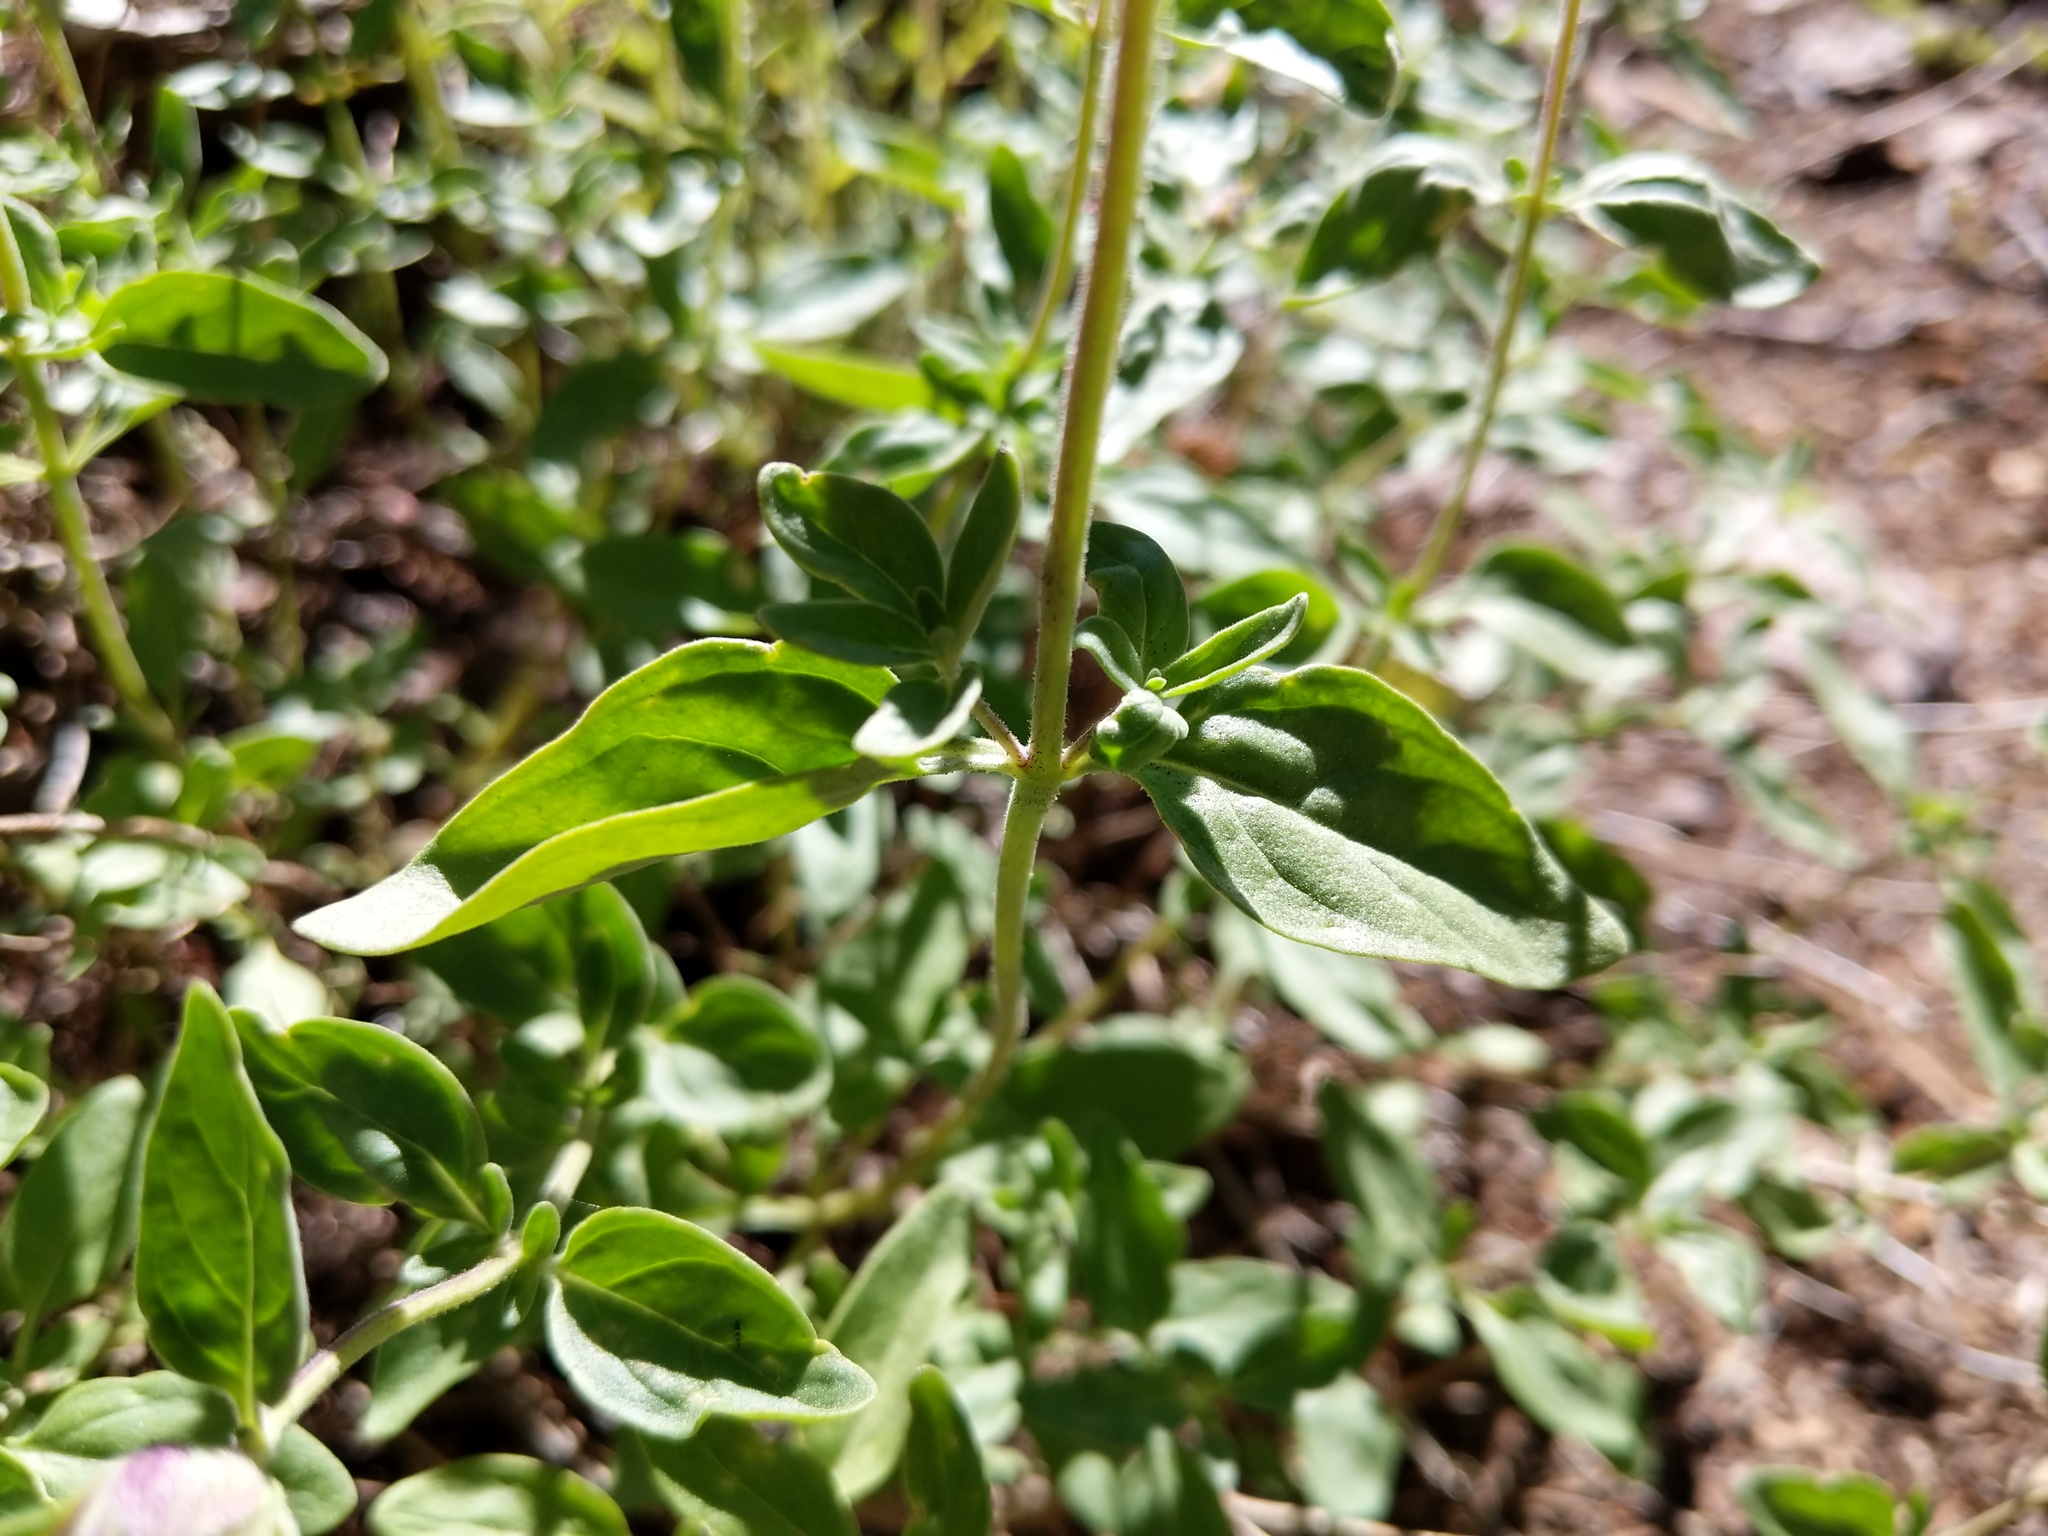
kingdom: Plantae
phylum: Tracheophyta
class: Magnoliopsida
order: Lamiales
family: Lamiaceae
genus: Monardella
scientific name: Monardella odoratissima
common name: Pacific monardella
